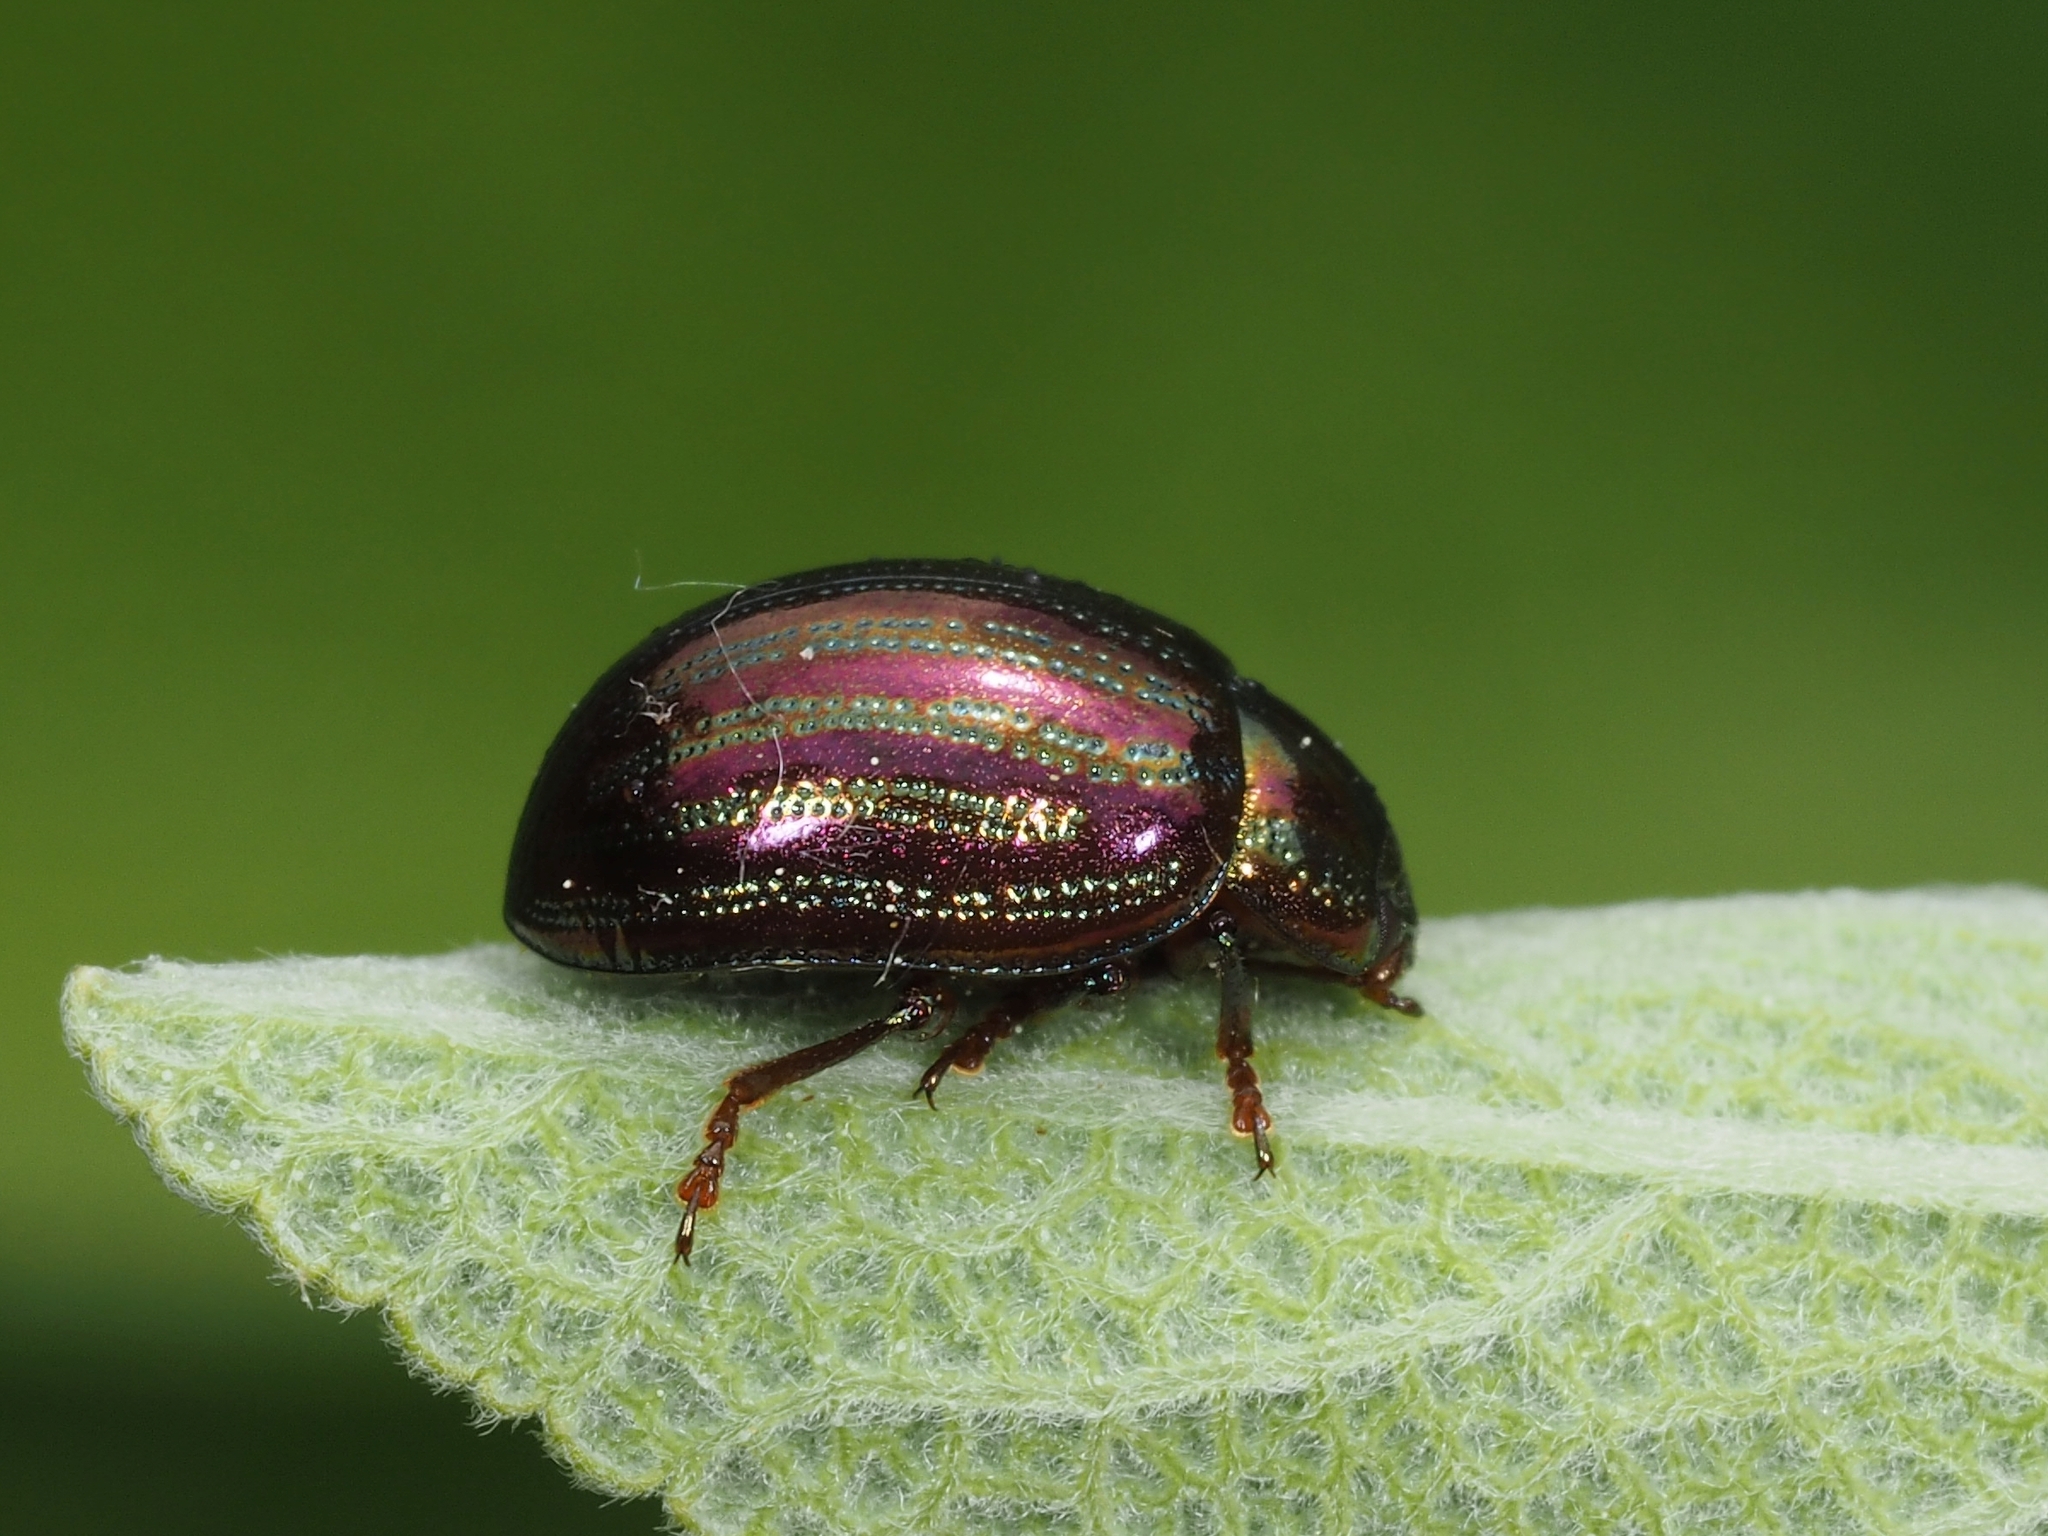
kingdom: Animalia
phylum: Arthropoda
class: Insecta
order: Coleoptera
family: Chrysomelidae
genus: Chrysolina
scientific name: Chrysolina americana
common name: Rosemary beetle
